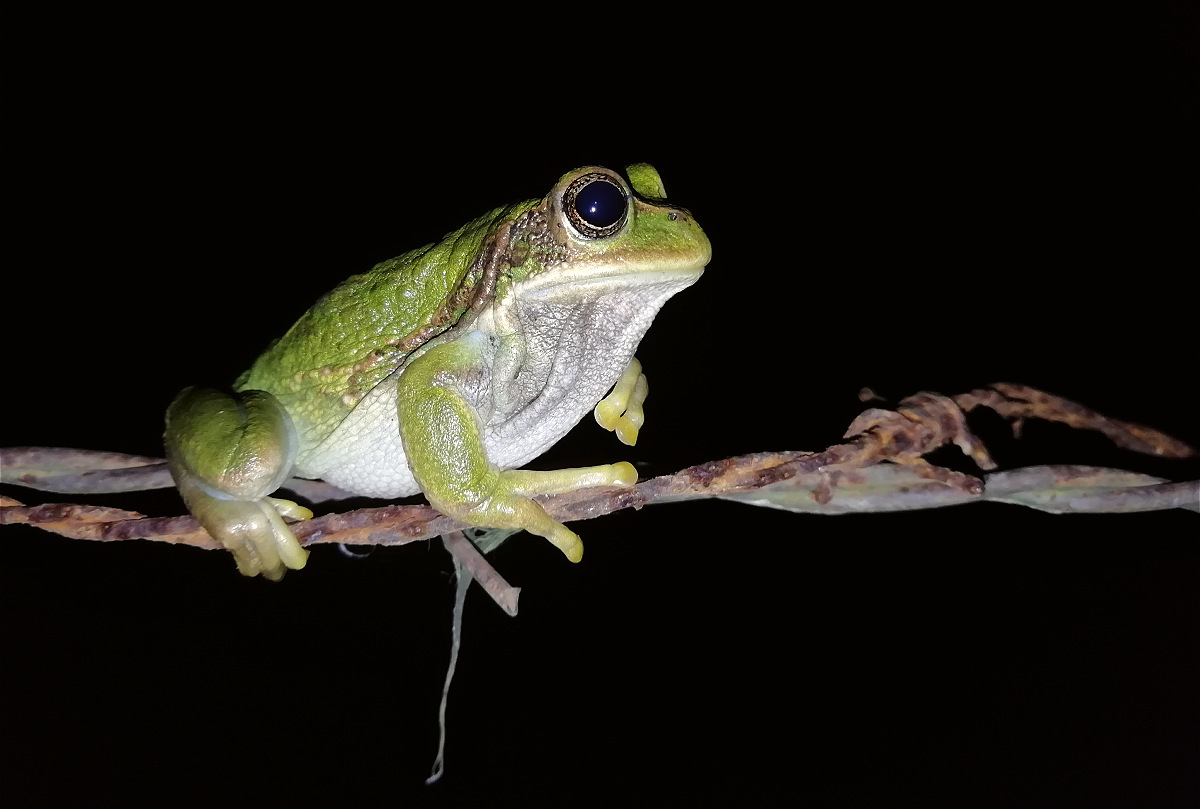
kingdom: Animalia
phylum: Chordata
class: Amphibia
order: Anura
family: Hemiphractidae
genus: Gastrotheca
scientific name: Gastrotheca cuencana
